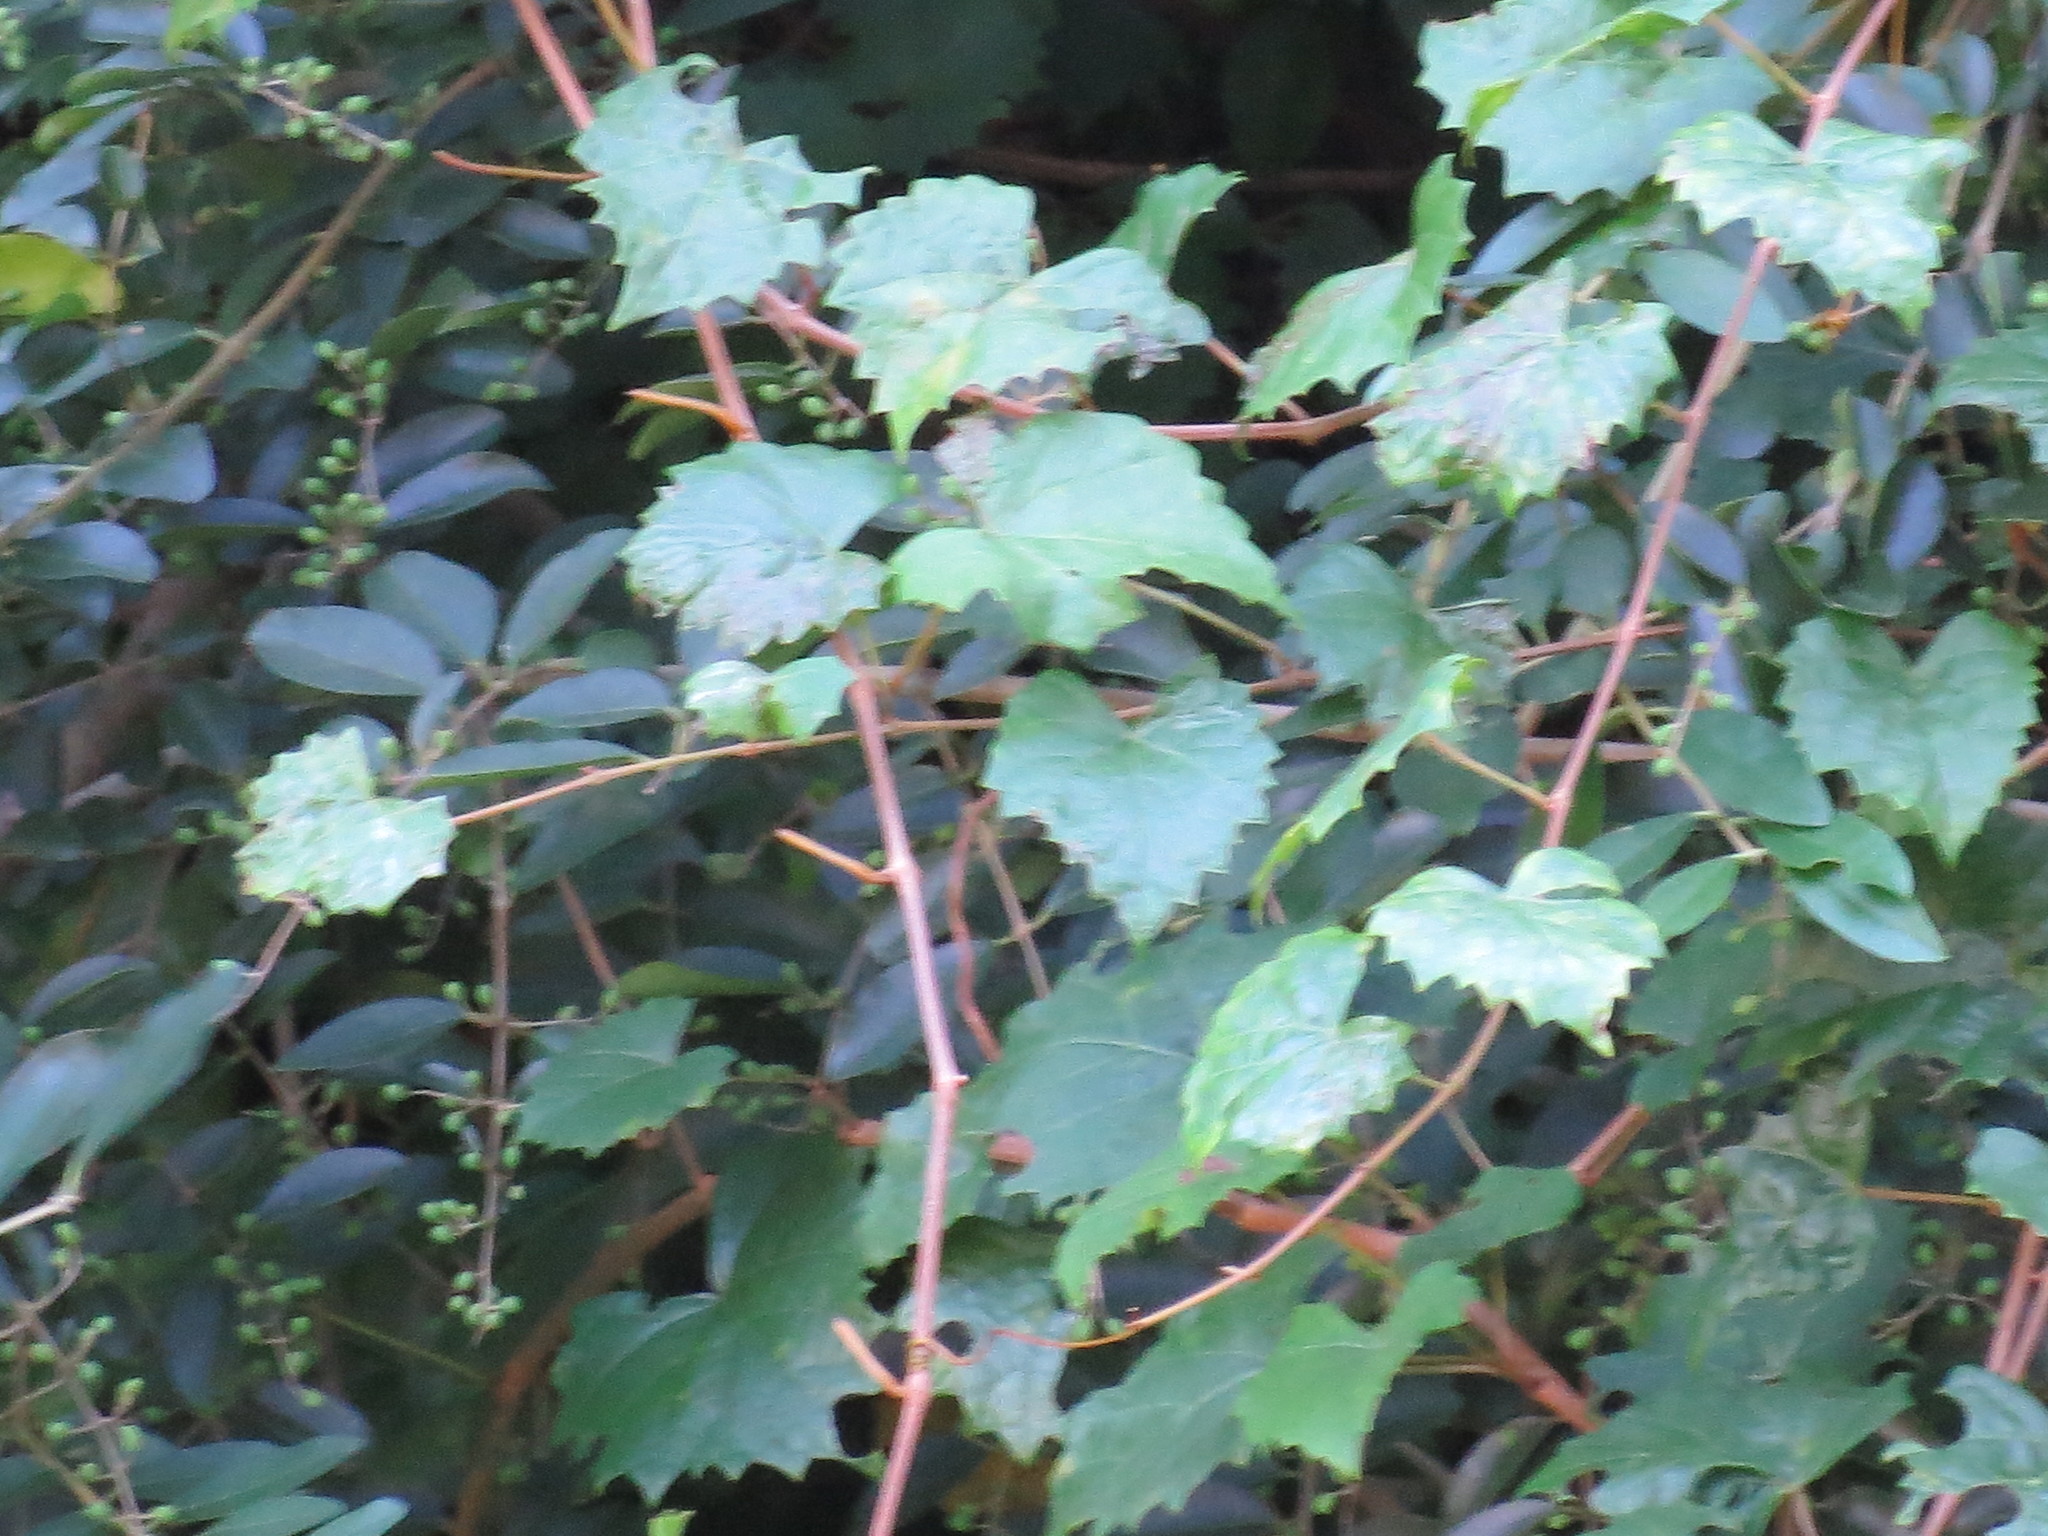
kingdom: Plantae
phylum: Tracheophyta
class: Magnoliopsida
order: Vitales
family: Vitaceae
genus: Vitis
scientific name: Vitis rotundifolia
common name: Muscadine grape
